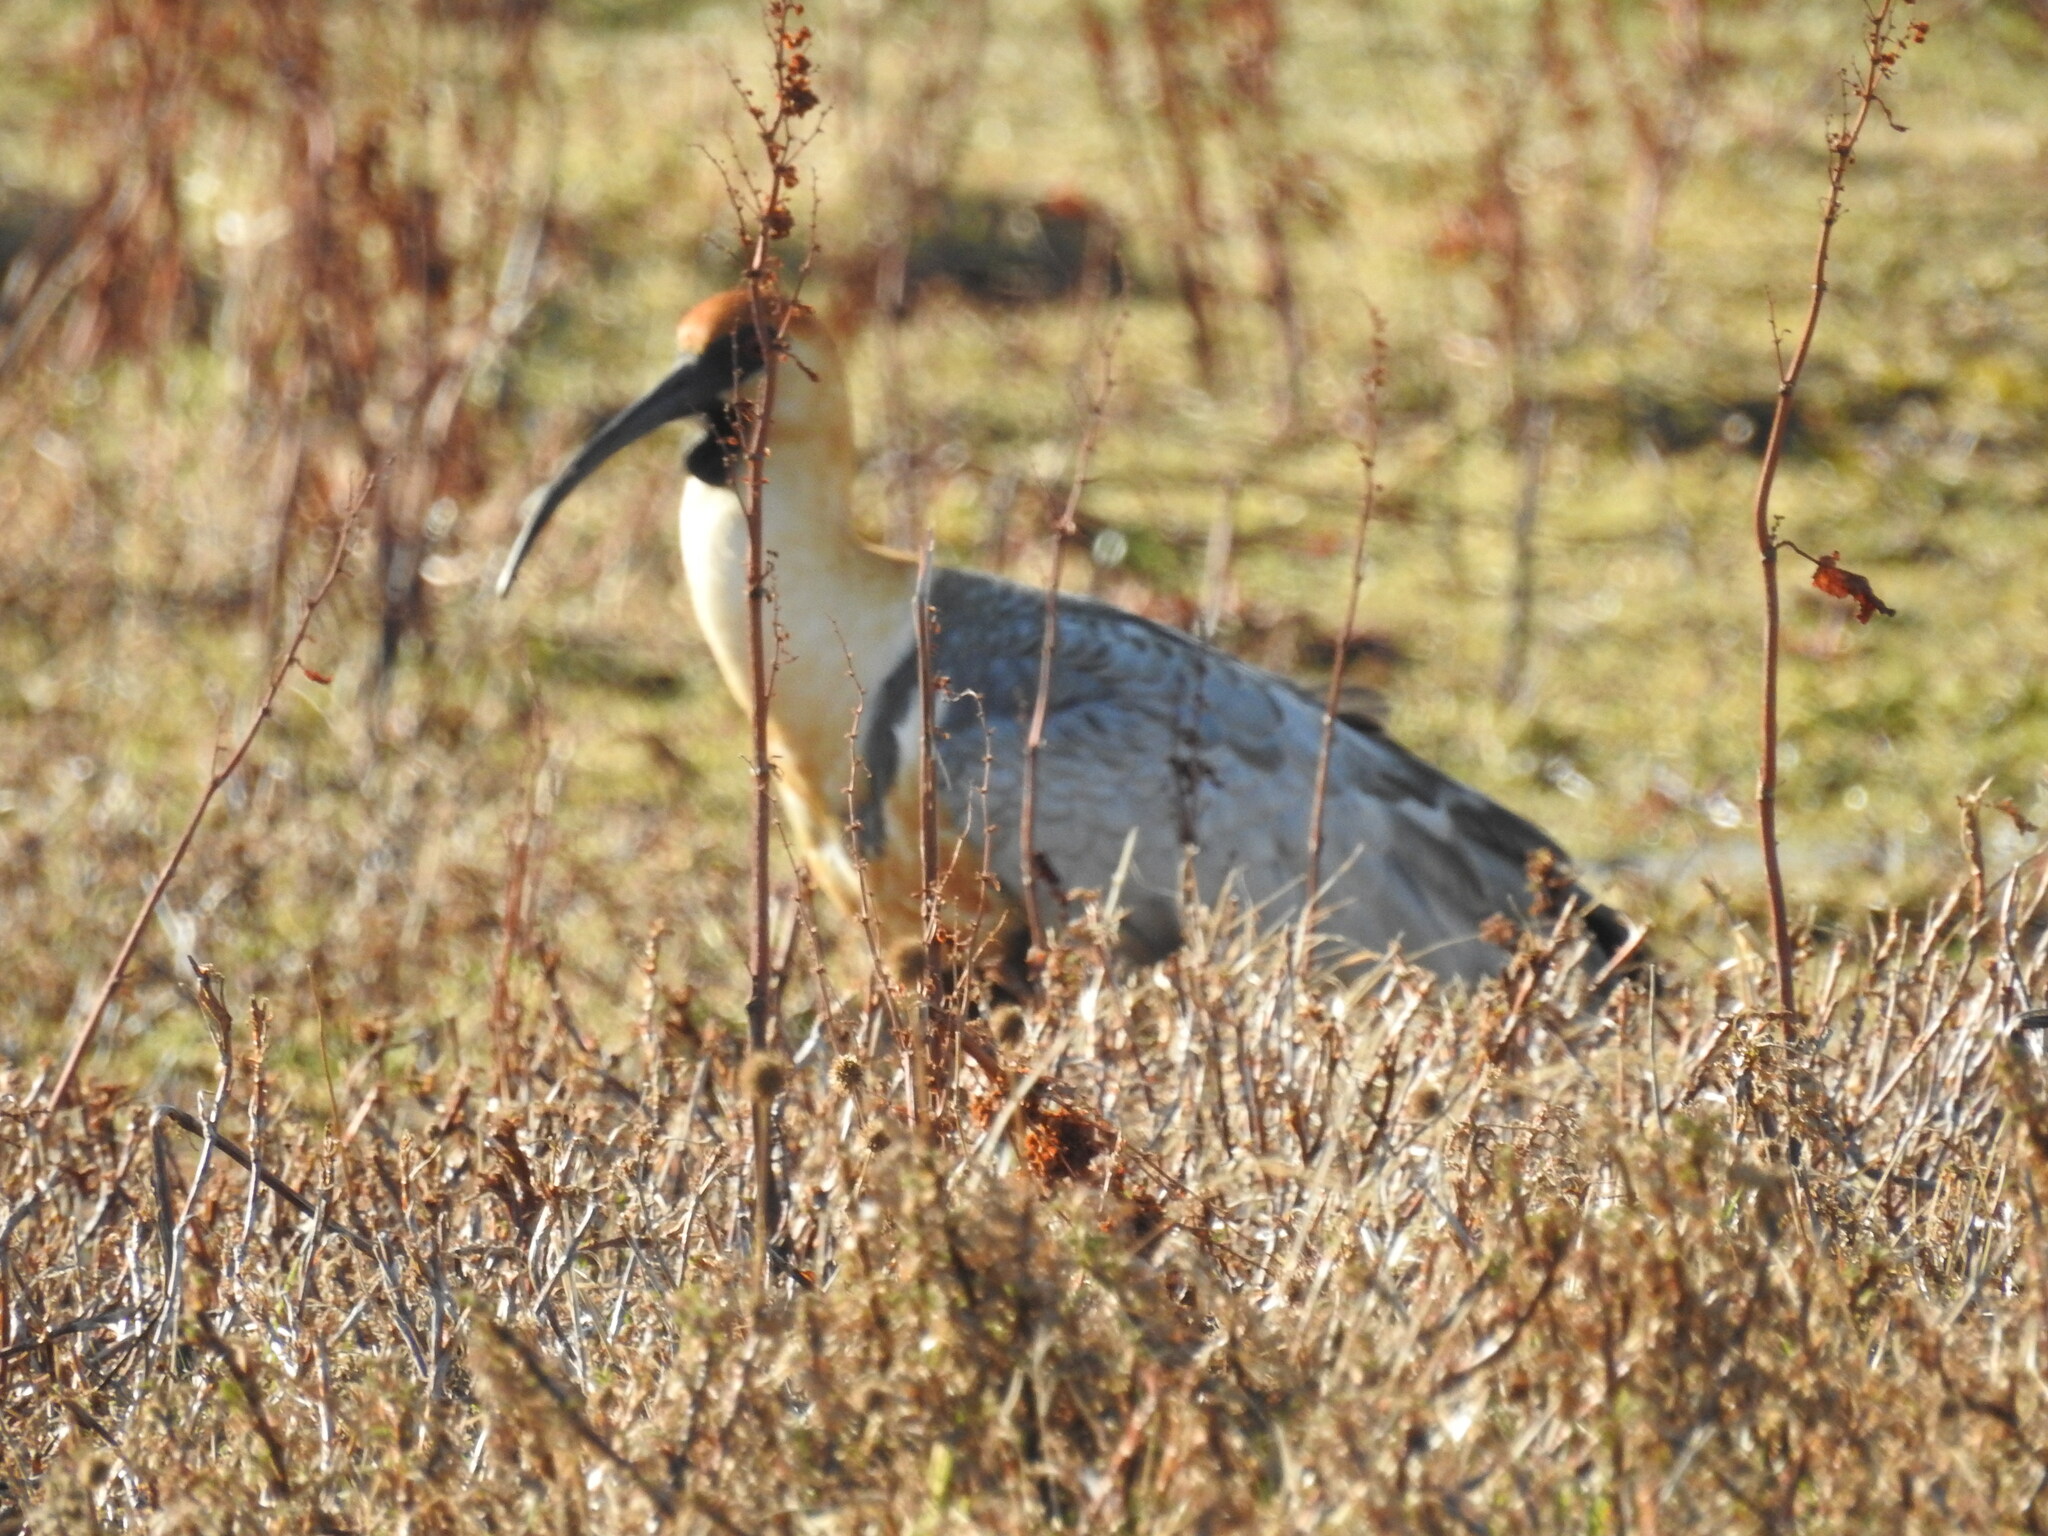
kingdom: Animalia
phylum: Chordata
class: Aves
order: Pelecaniformes
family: Threskiornithidae
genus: Theristicus
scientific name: Theristicus melanopis
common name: Black-faced ibis
